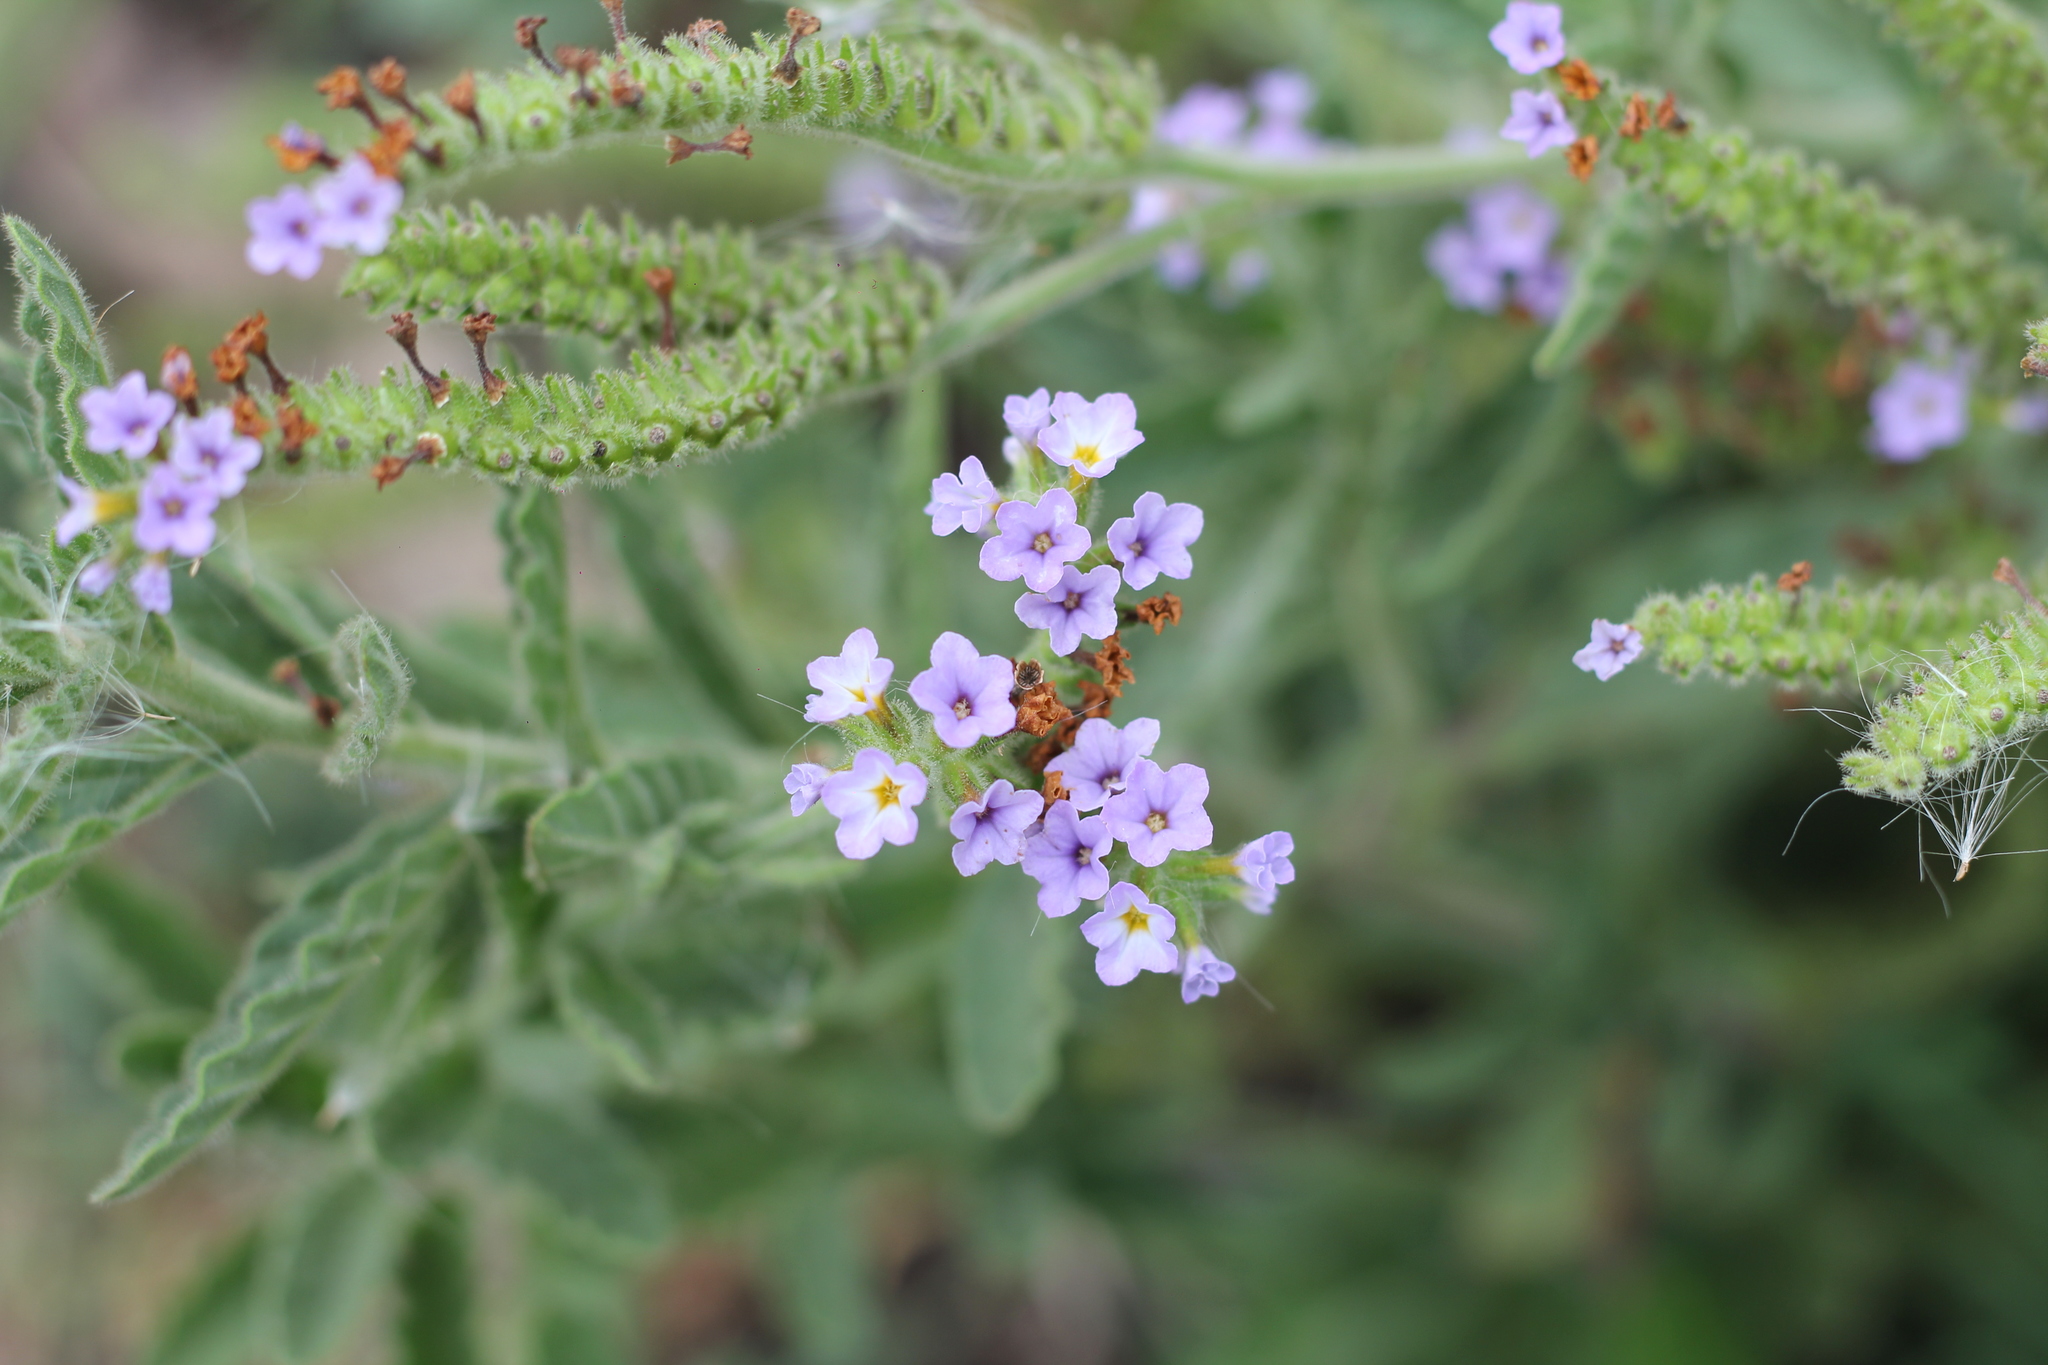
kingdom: Plantae
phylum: Tracheophyta
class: Magnoliopsida
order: Boraginales
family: Heliotropiaceae
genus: Heliotropium
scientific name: Heliotropium amplexicaule
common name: Clasping heliotrope
